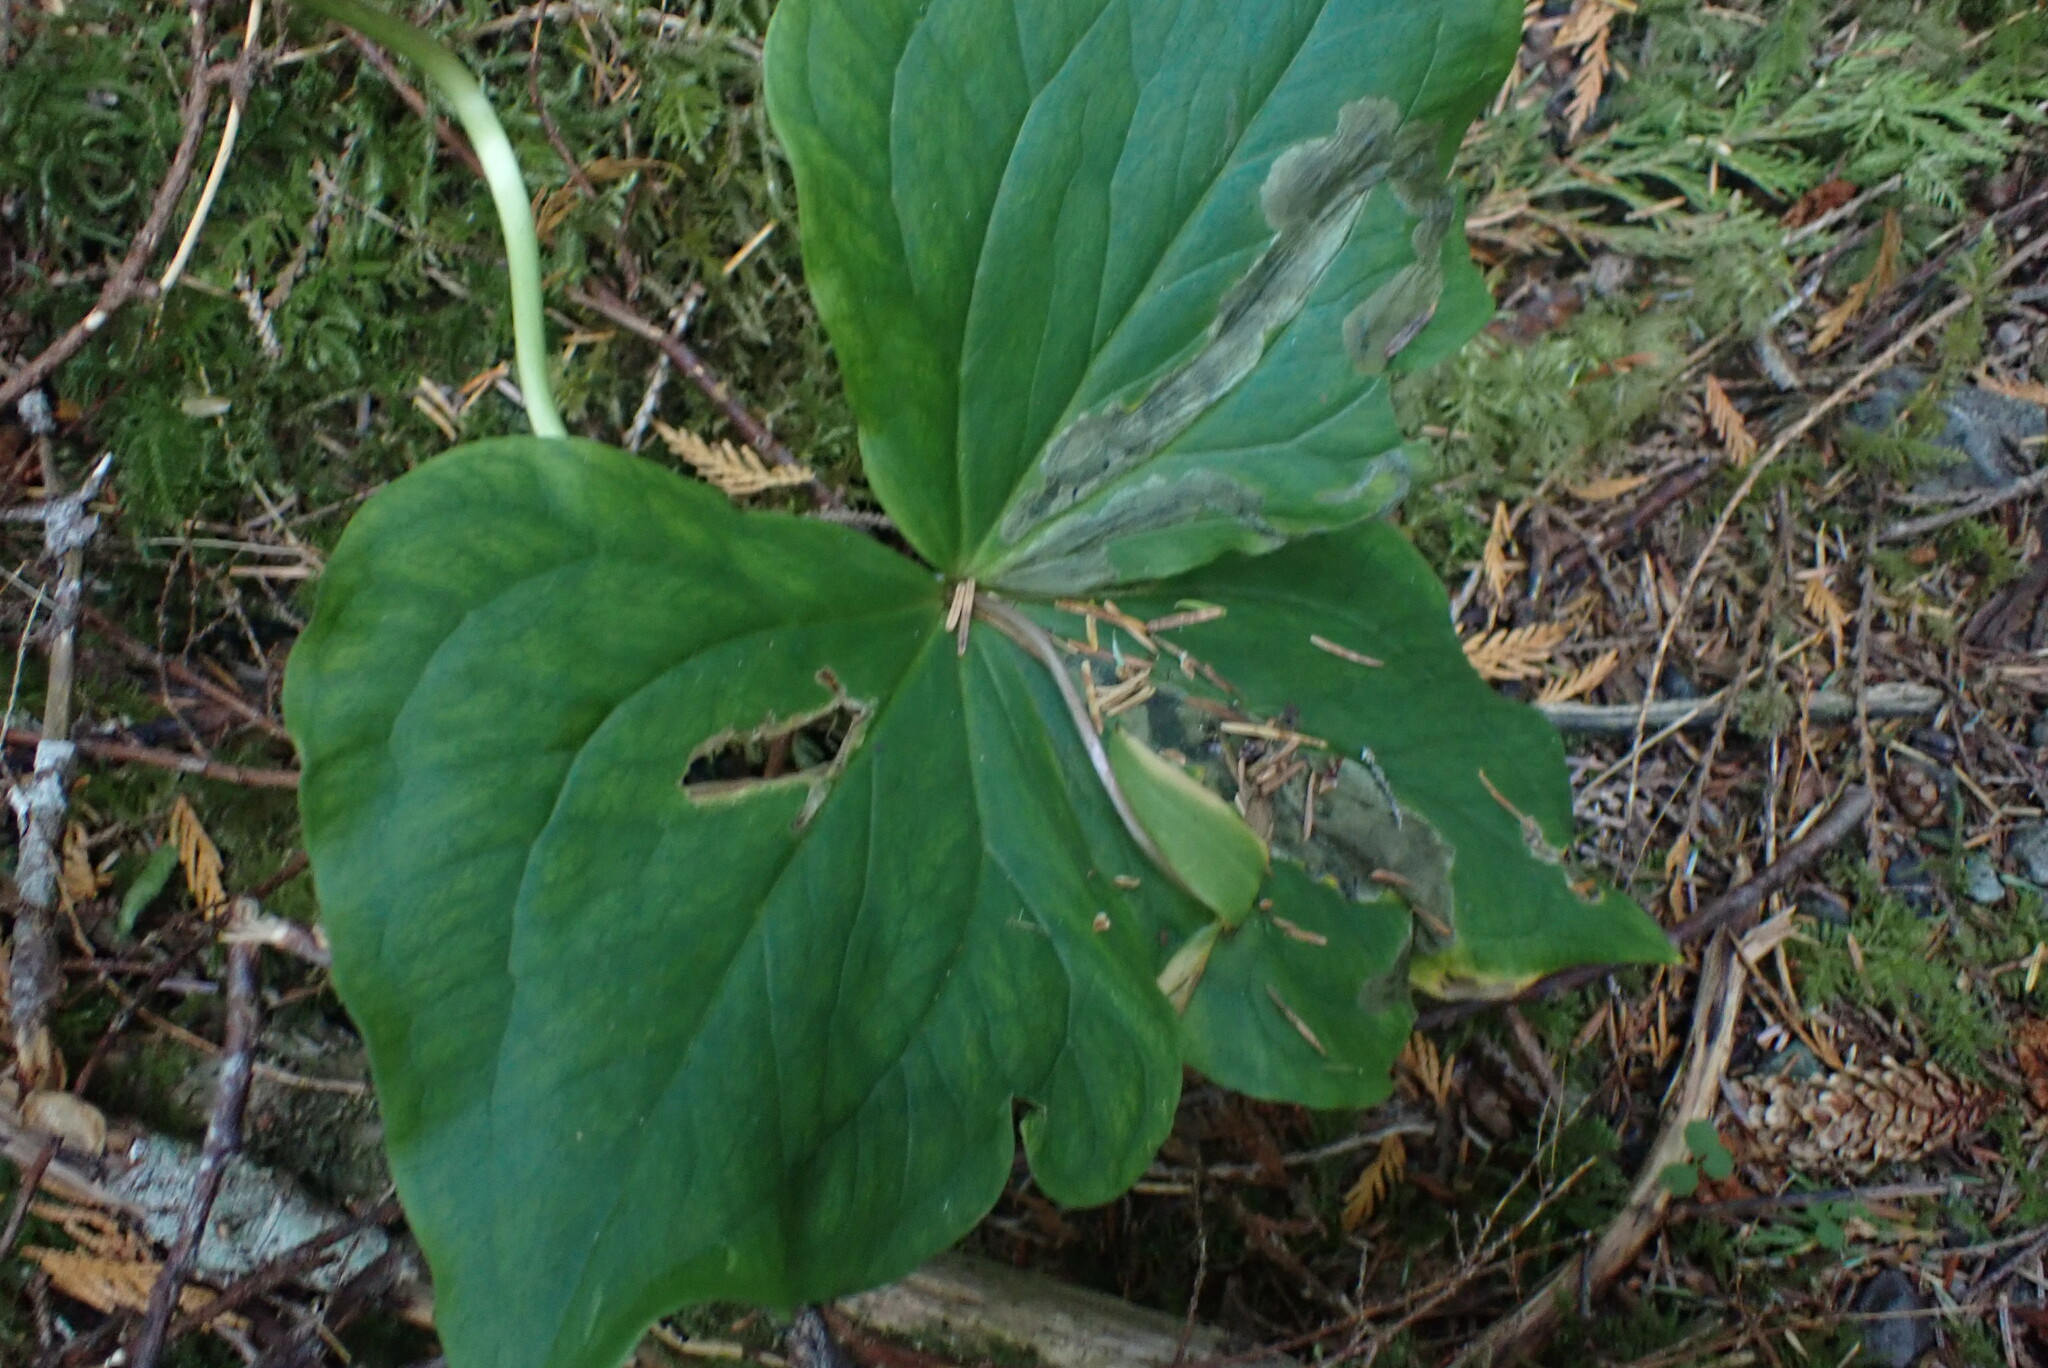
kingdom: Plantae
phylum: Tracheophyta
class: Liliopsida
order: Liliales
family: Melanthiaceae
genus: Trillium
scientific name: Trillium ovatum
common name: Pacific trillium
